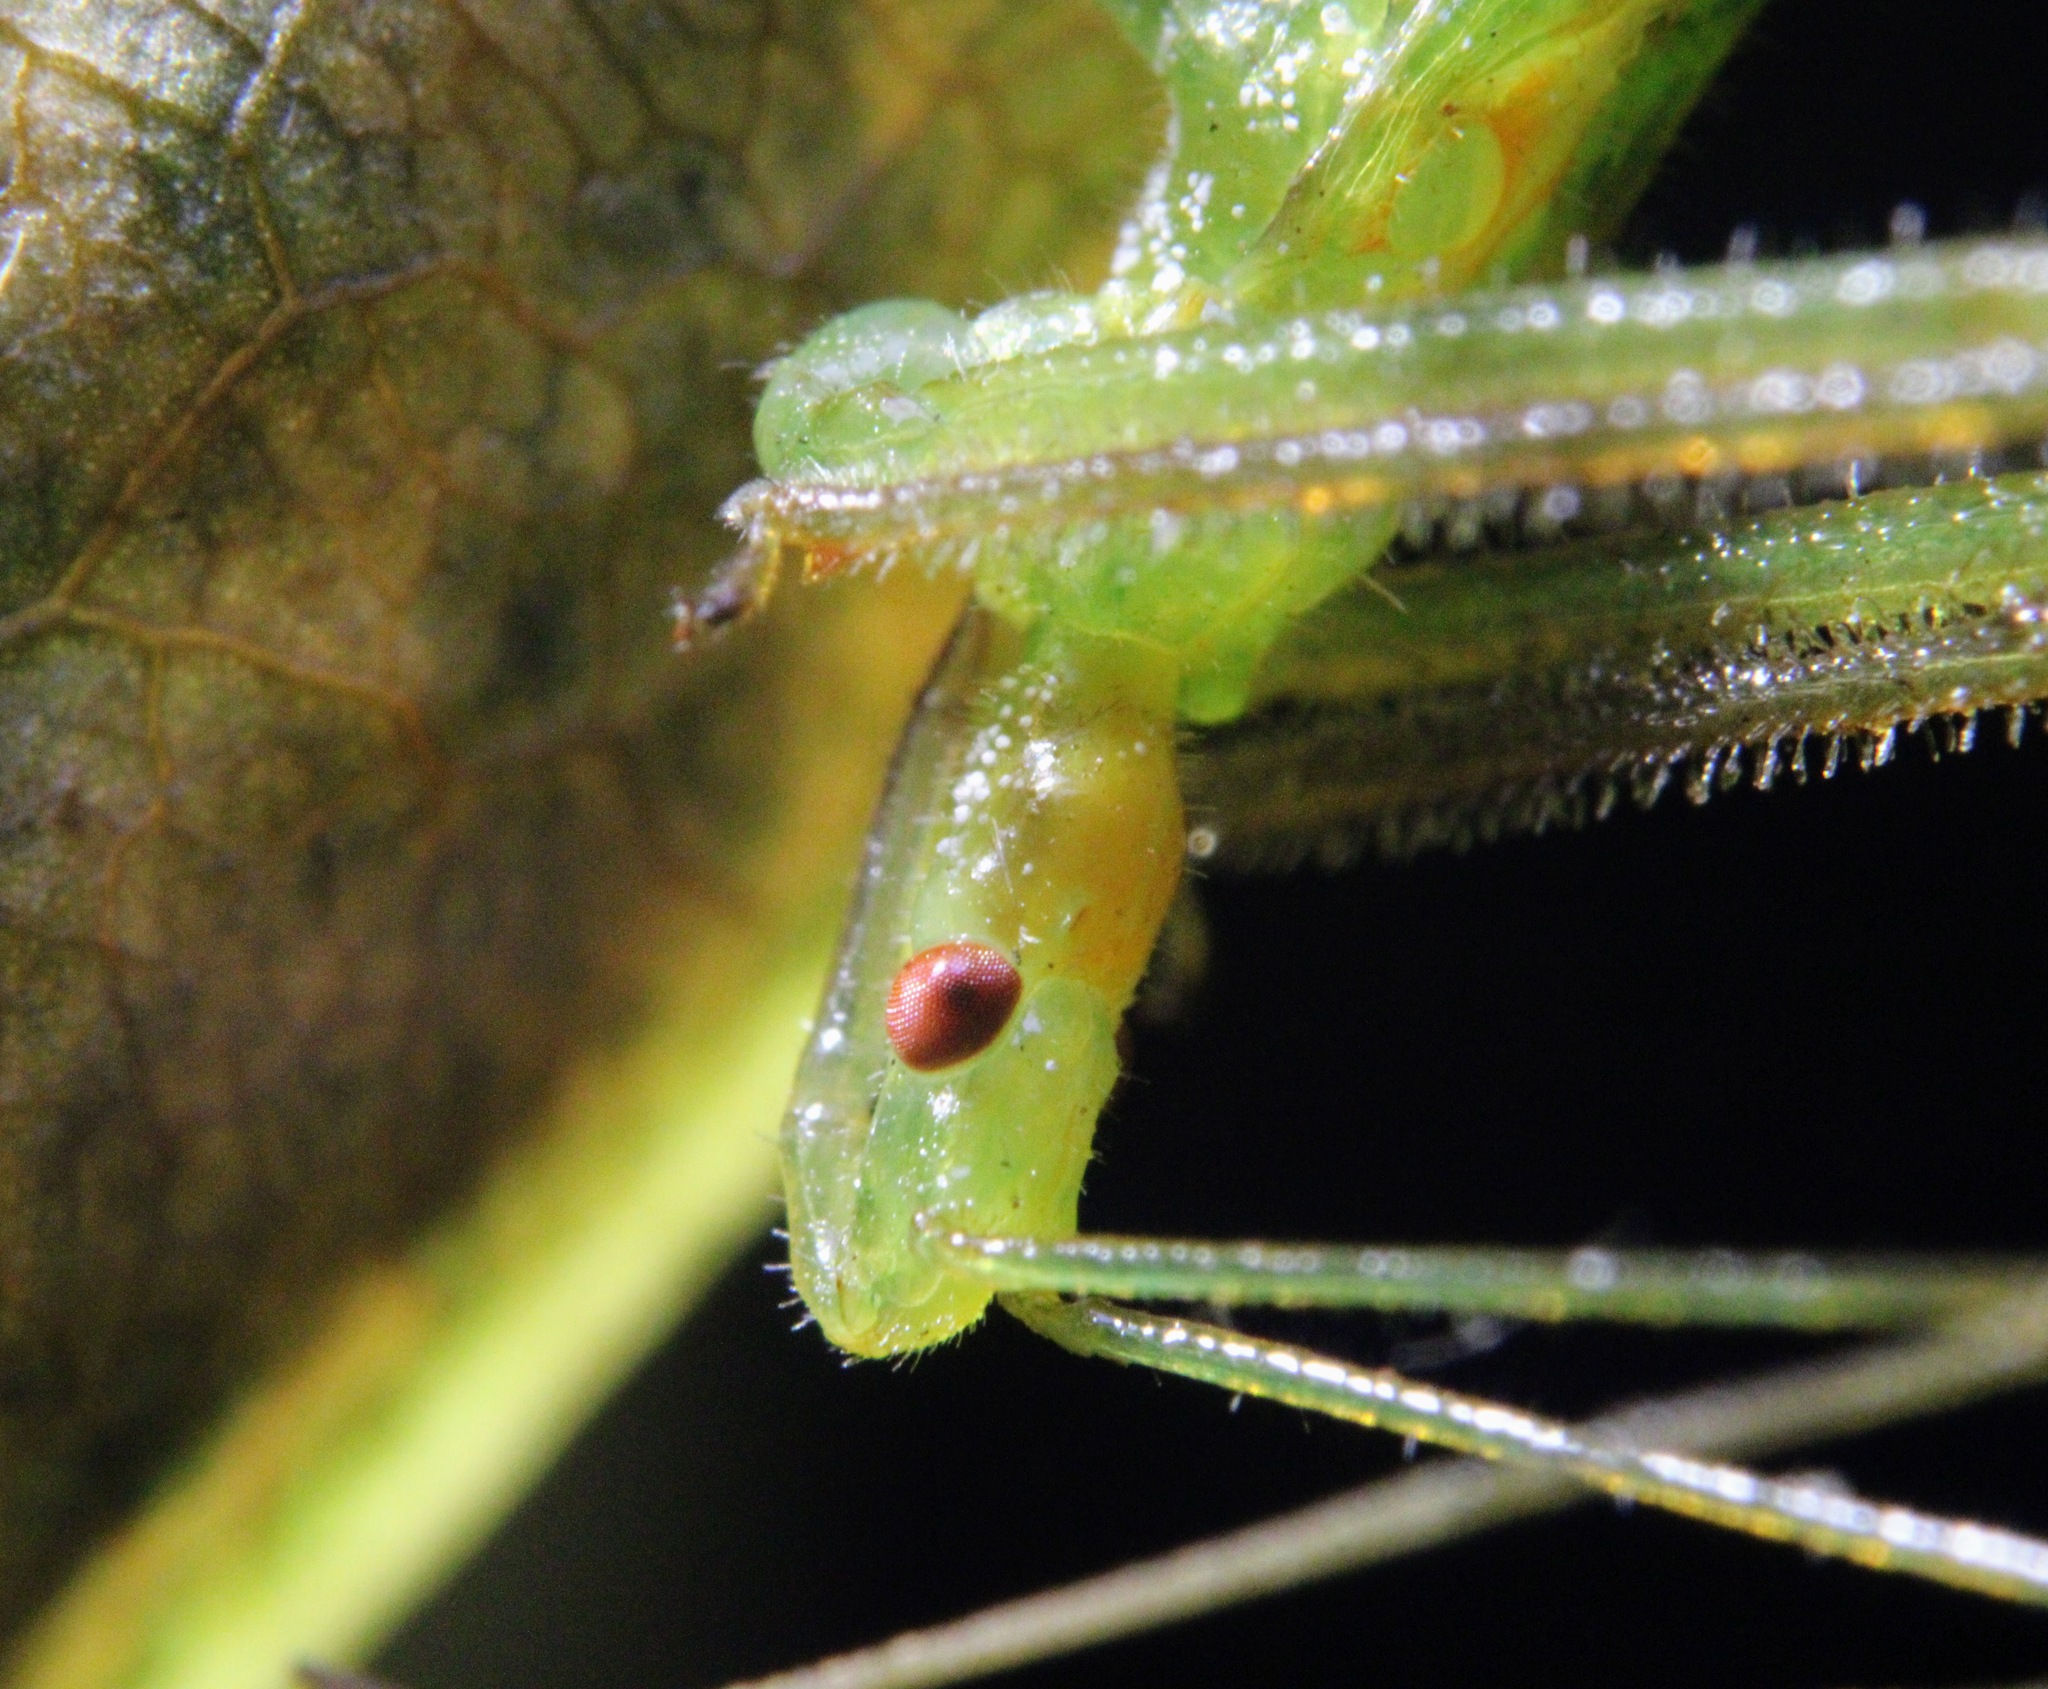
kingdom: Animalia
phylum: Arthropoda
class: Insecta
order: Hemiptera
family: Reduviidae
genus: Zelus
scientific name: Zelus luridus
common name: Pale green assassin bug
